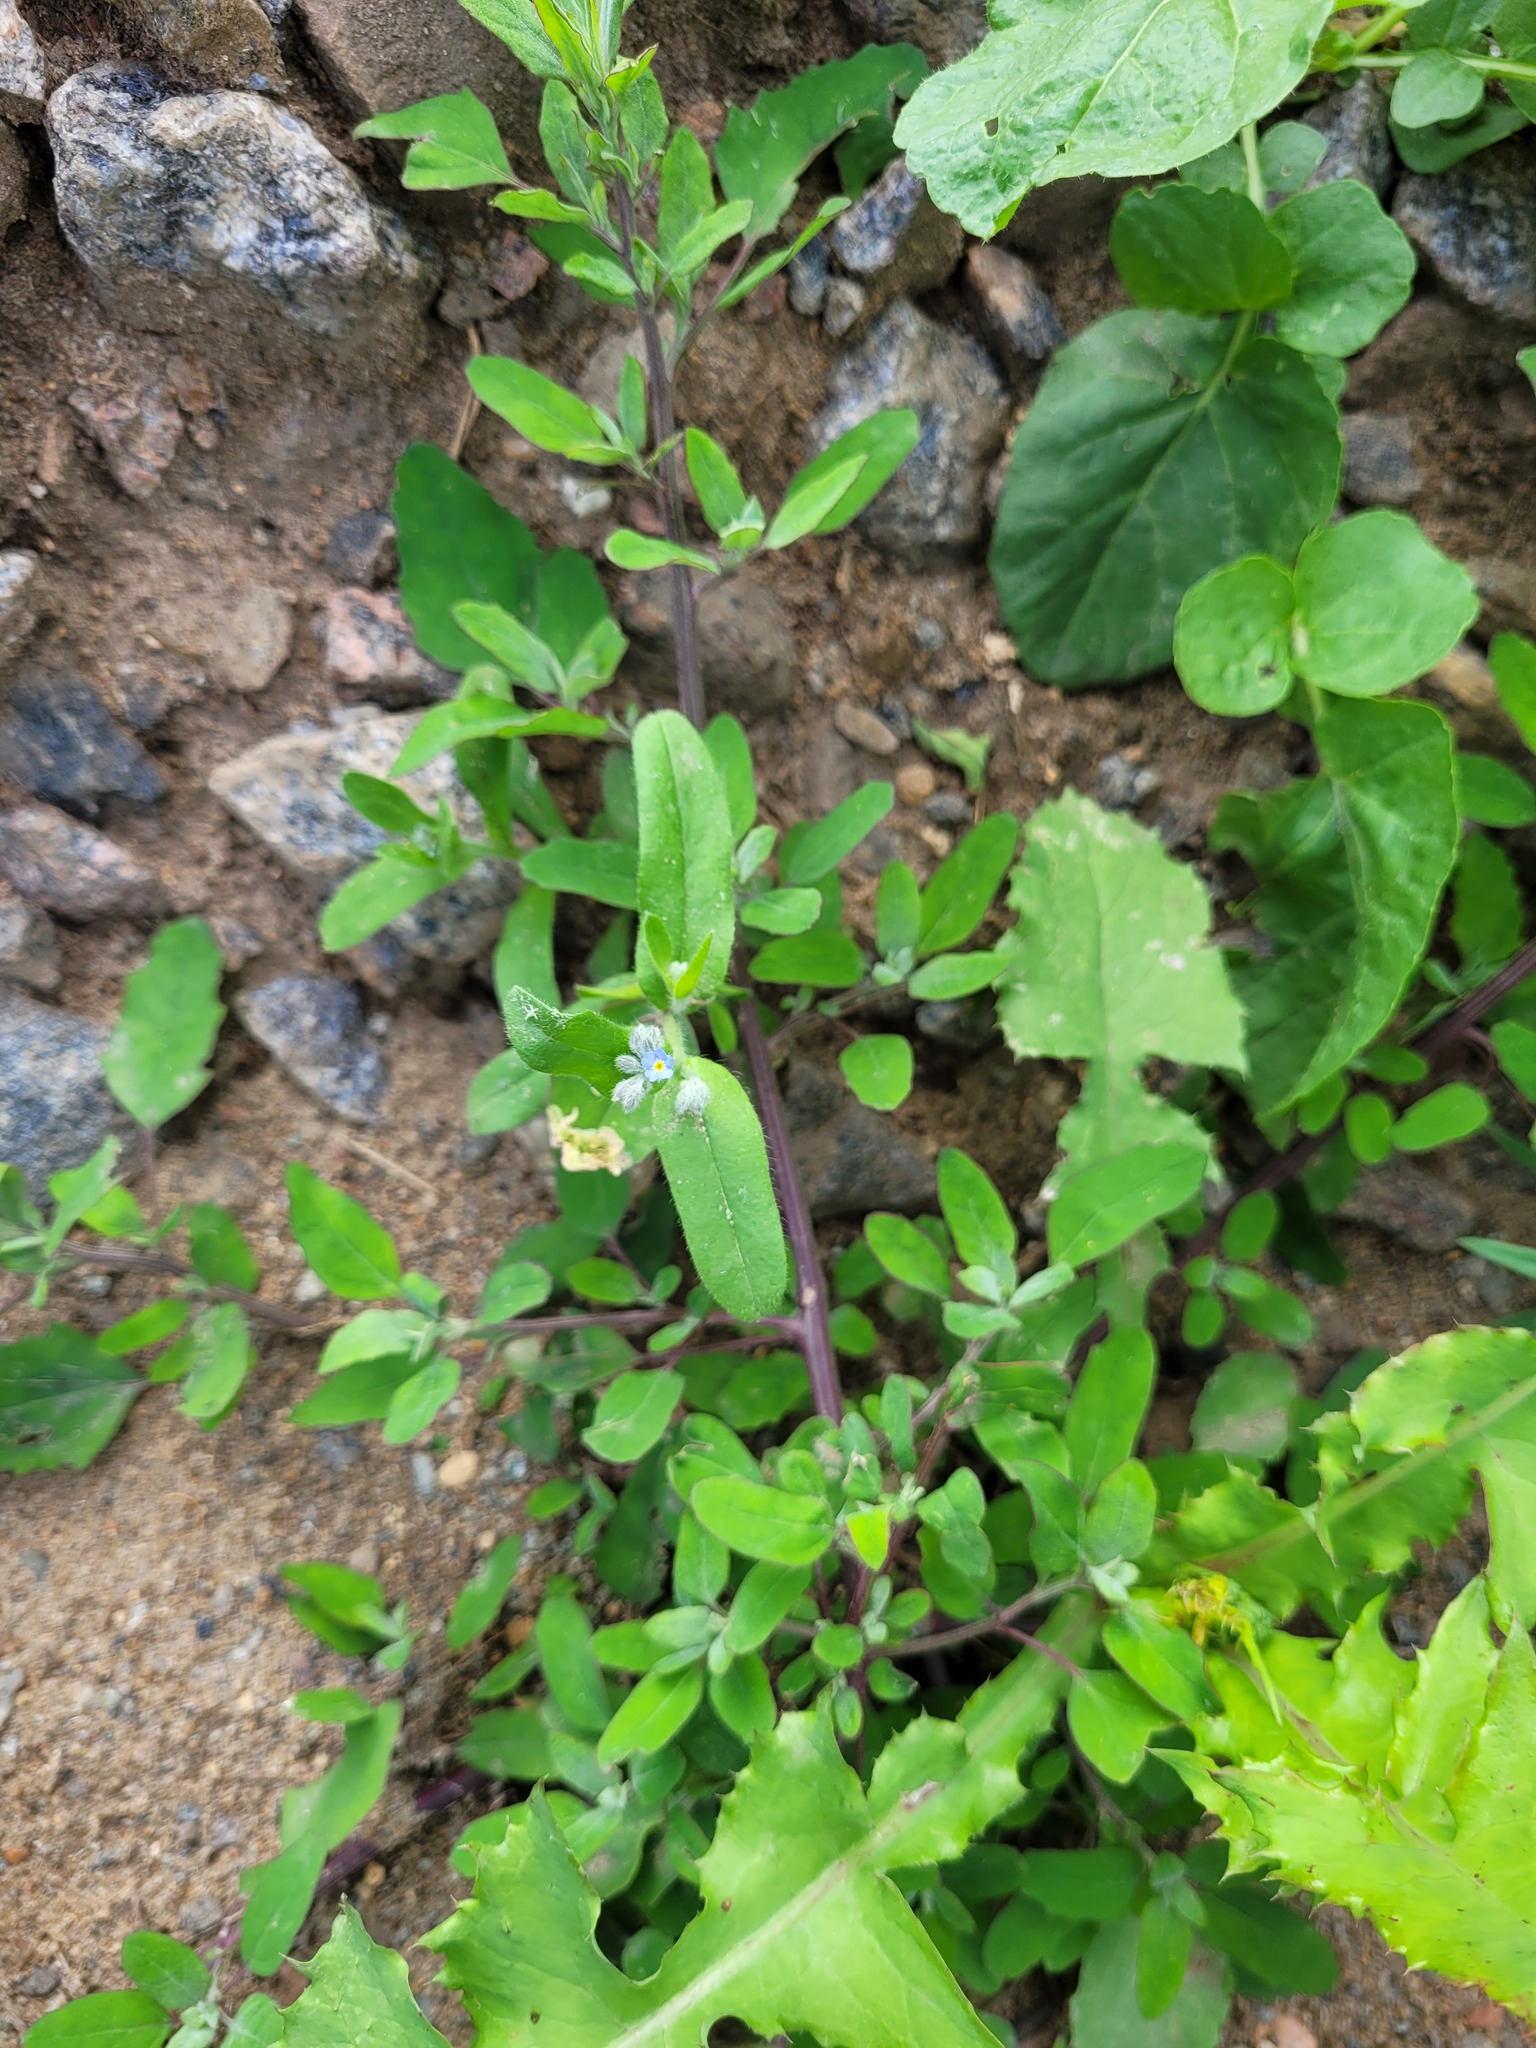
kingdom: Plantae
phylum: Tracheophyta
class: Magnoliopsida
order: Caryophyllales
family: Amaranthaceae
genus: Chenopodium
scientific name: Chenopodium betaceum
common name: Striped goosefoot
